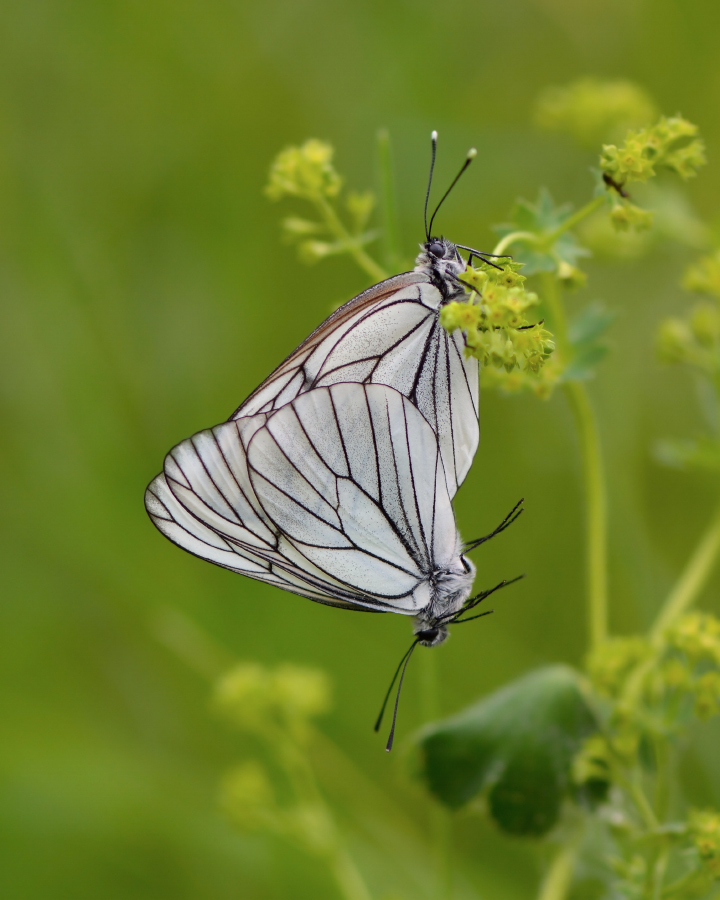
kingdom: Animalia
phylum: Arthropoda
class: Insecta
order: Lepidoptera
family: Pieridae
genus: Aporia
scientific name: Aporia crataegi
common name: Black-veined white
